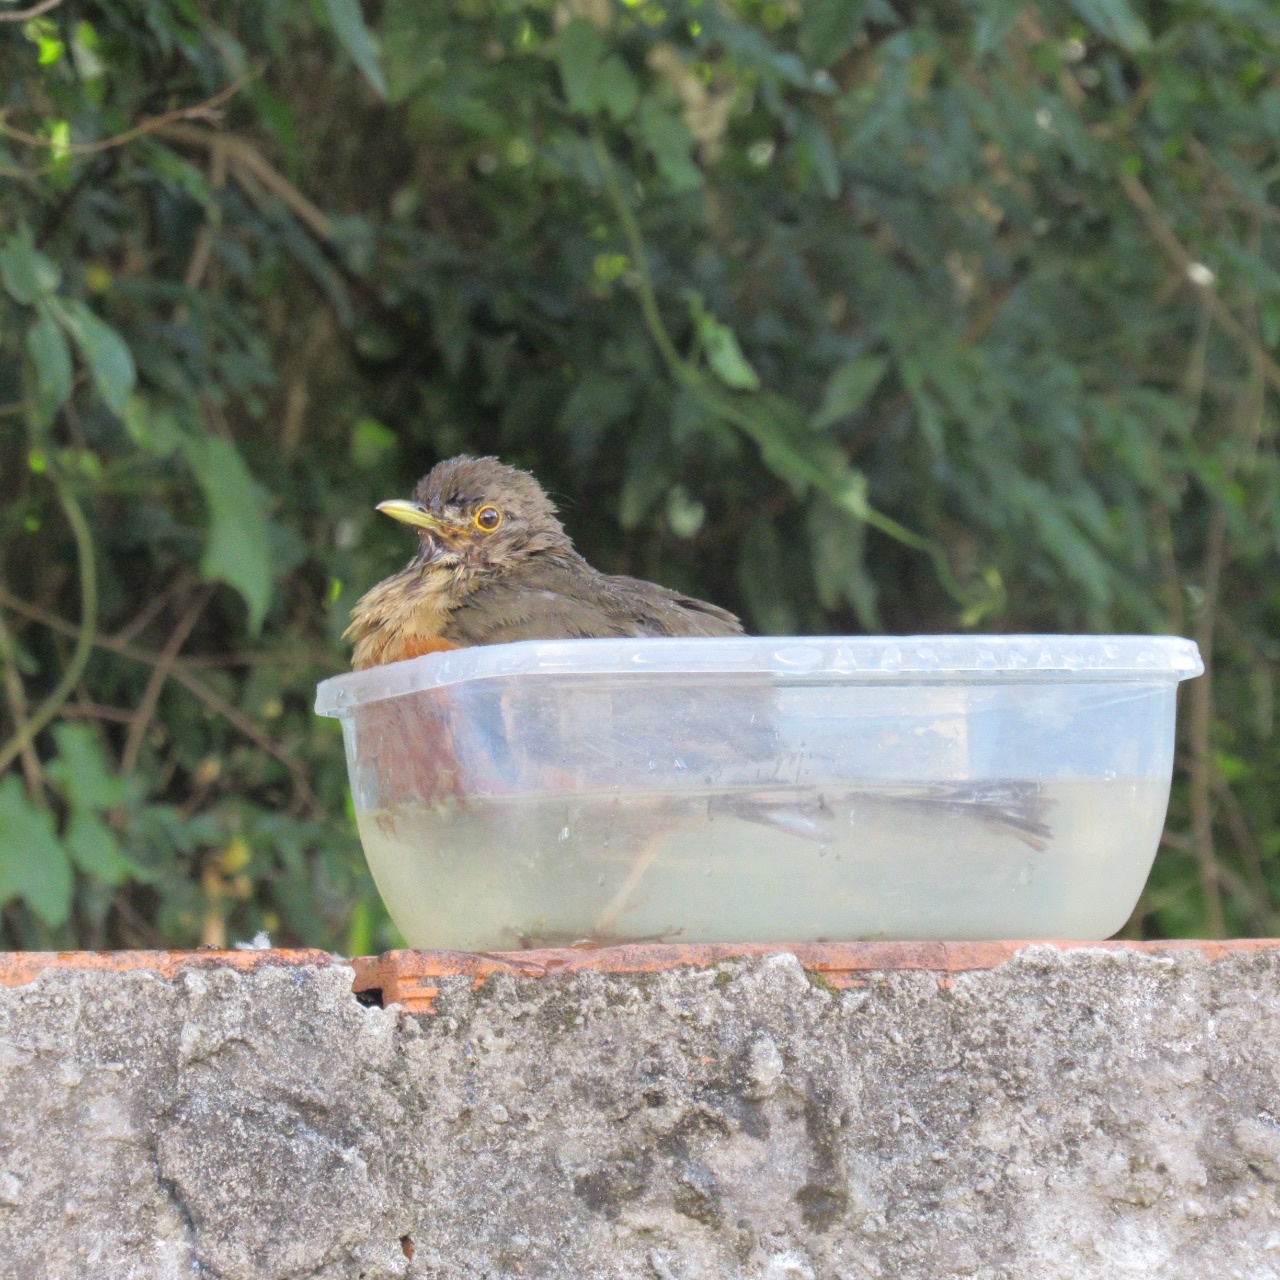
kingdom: Animalia
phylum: Chordata
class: Aves
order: Passeriformes
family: Turdidae
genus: Turdus
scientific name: Turdus rufiventris
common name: Rufous-bellied thrush
